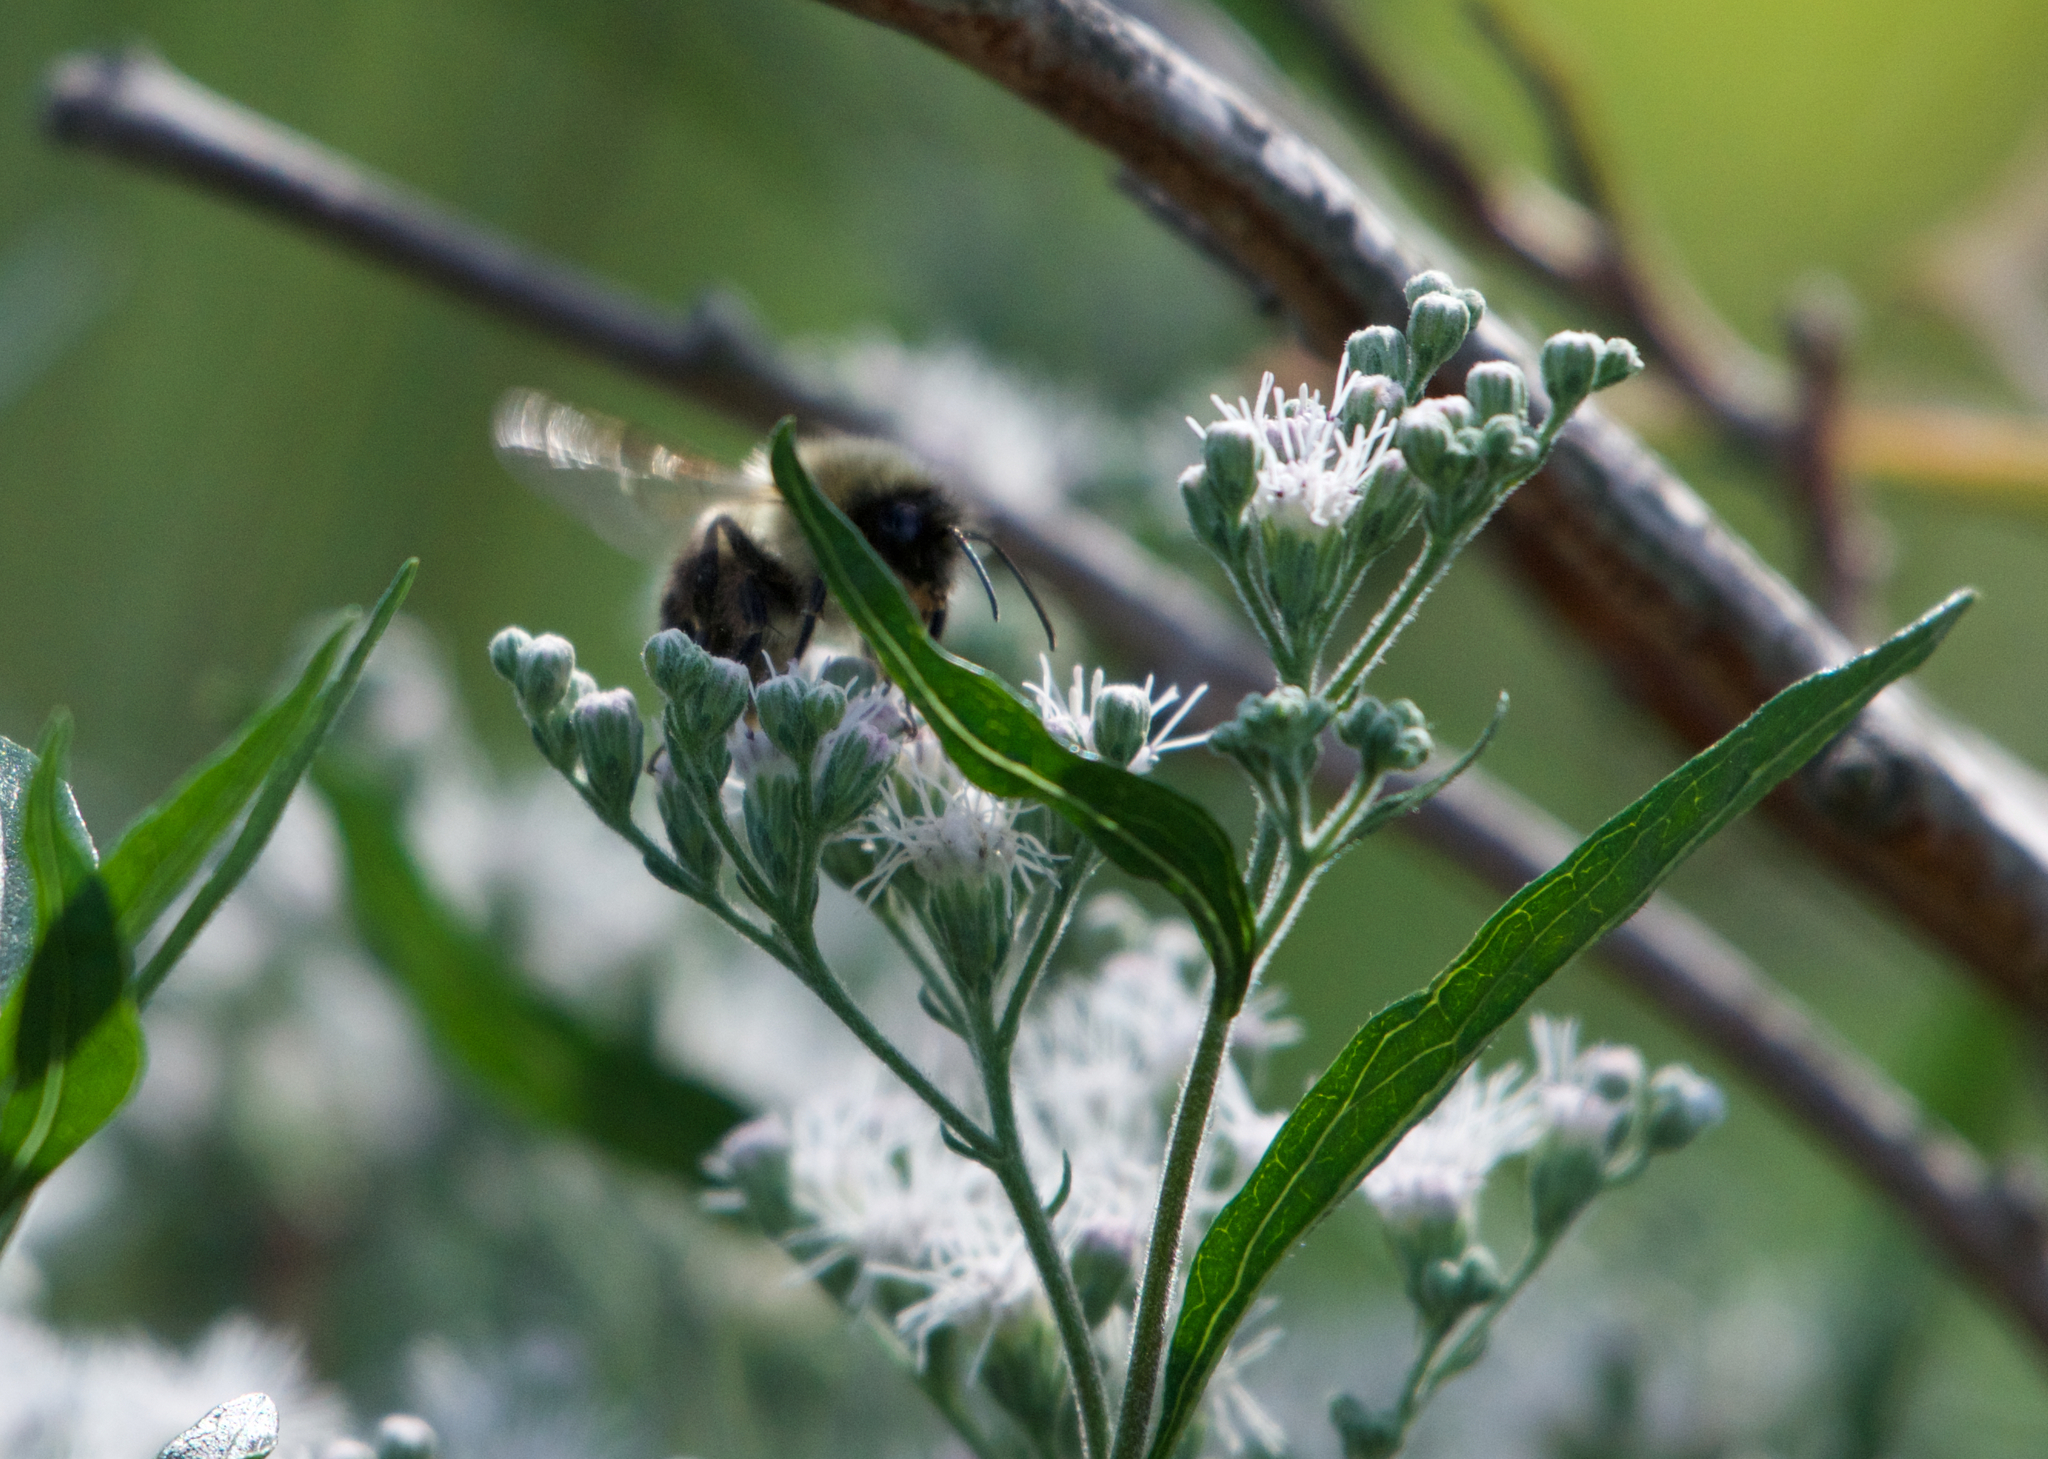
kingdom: Animalia
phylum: Arthropoda
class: Insecta
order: Hymenoptera
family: Apidae
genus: Bombus
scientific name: Bombus impatiens
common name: Common eastern bumble bee
